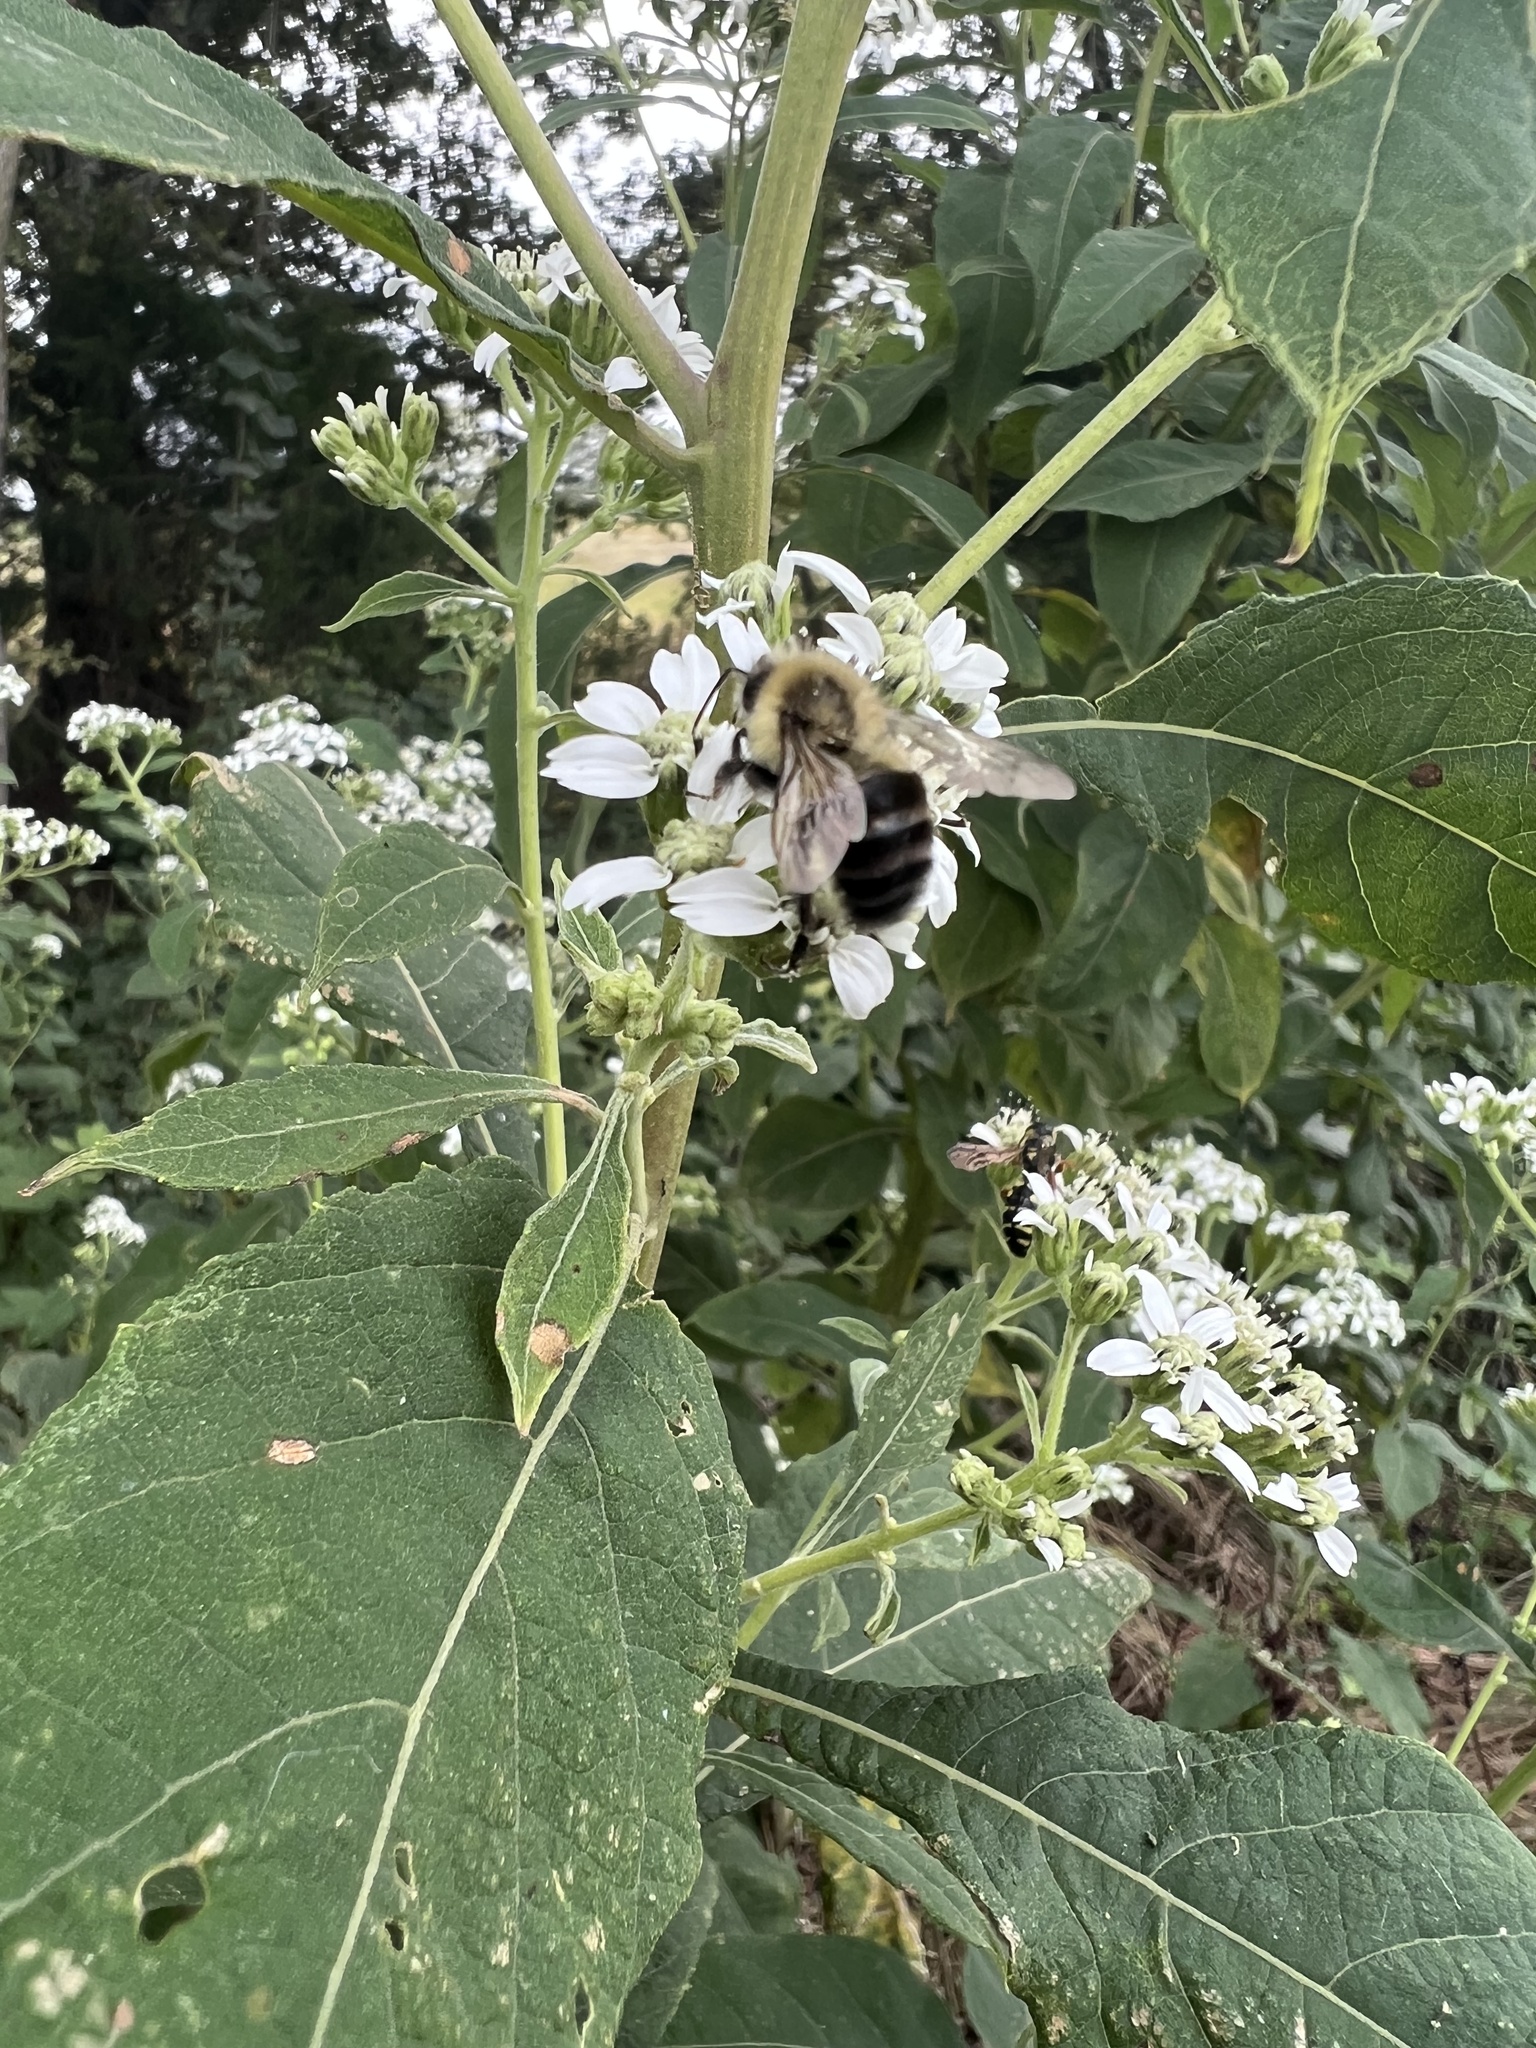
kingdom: Animalia
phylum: Arthropoda
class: Insecta
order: Hymenoptera
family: Apidae
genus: Bombus
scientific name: Bombus impatiens
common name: Common eastern bumble bee
